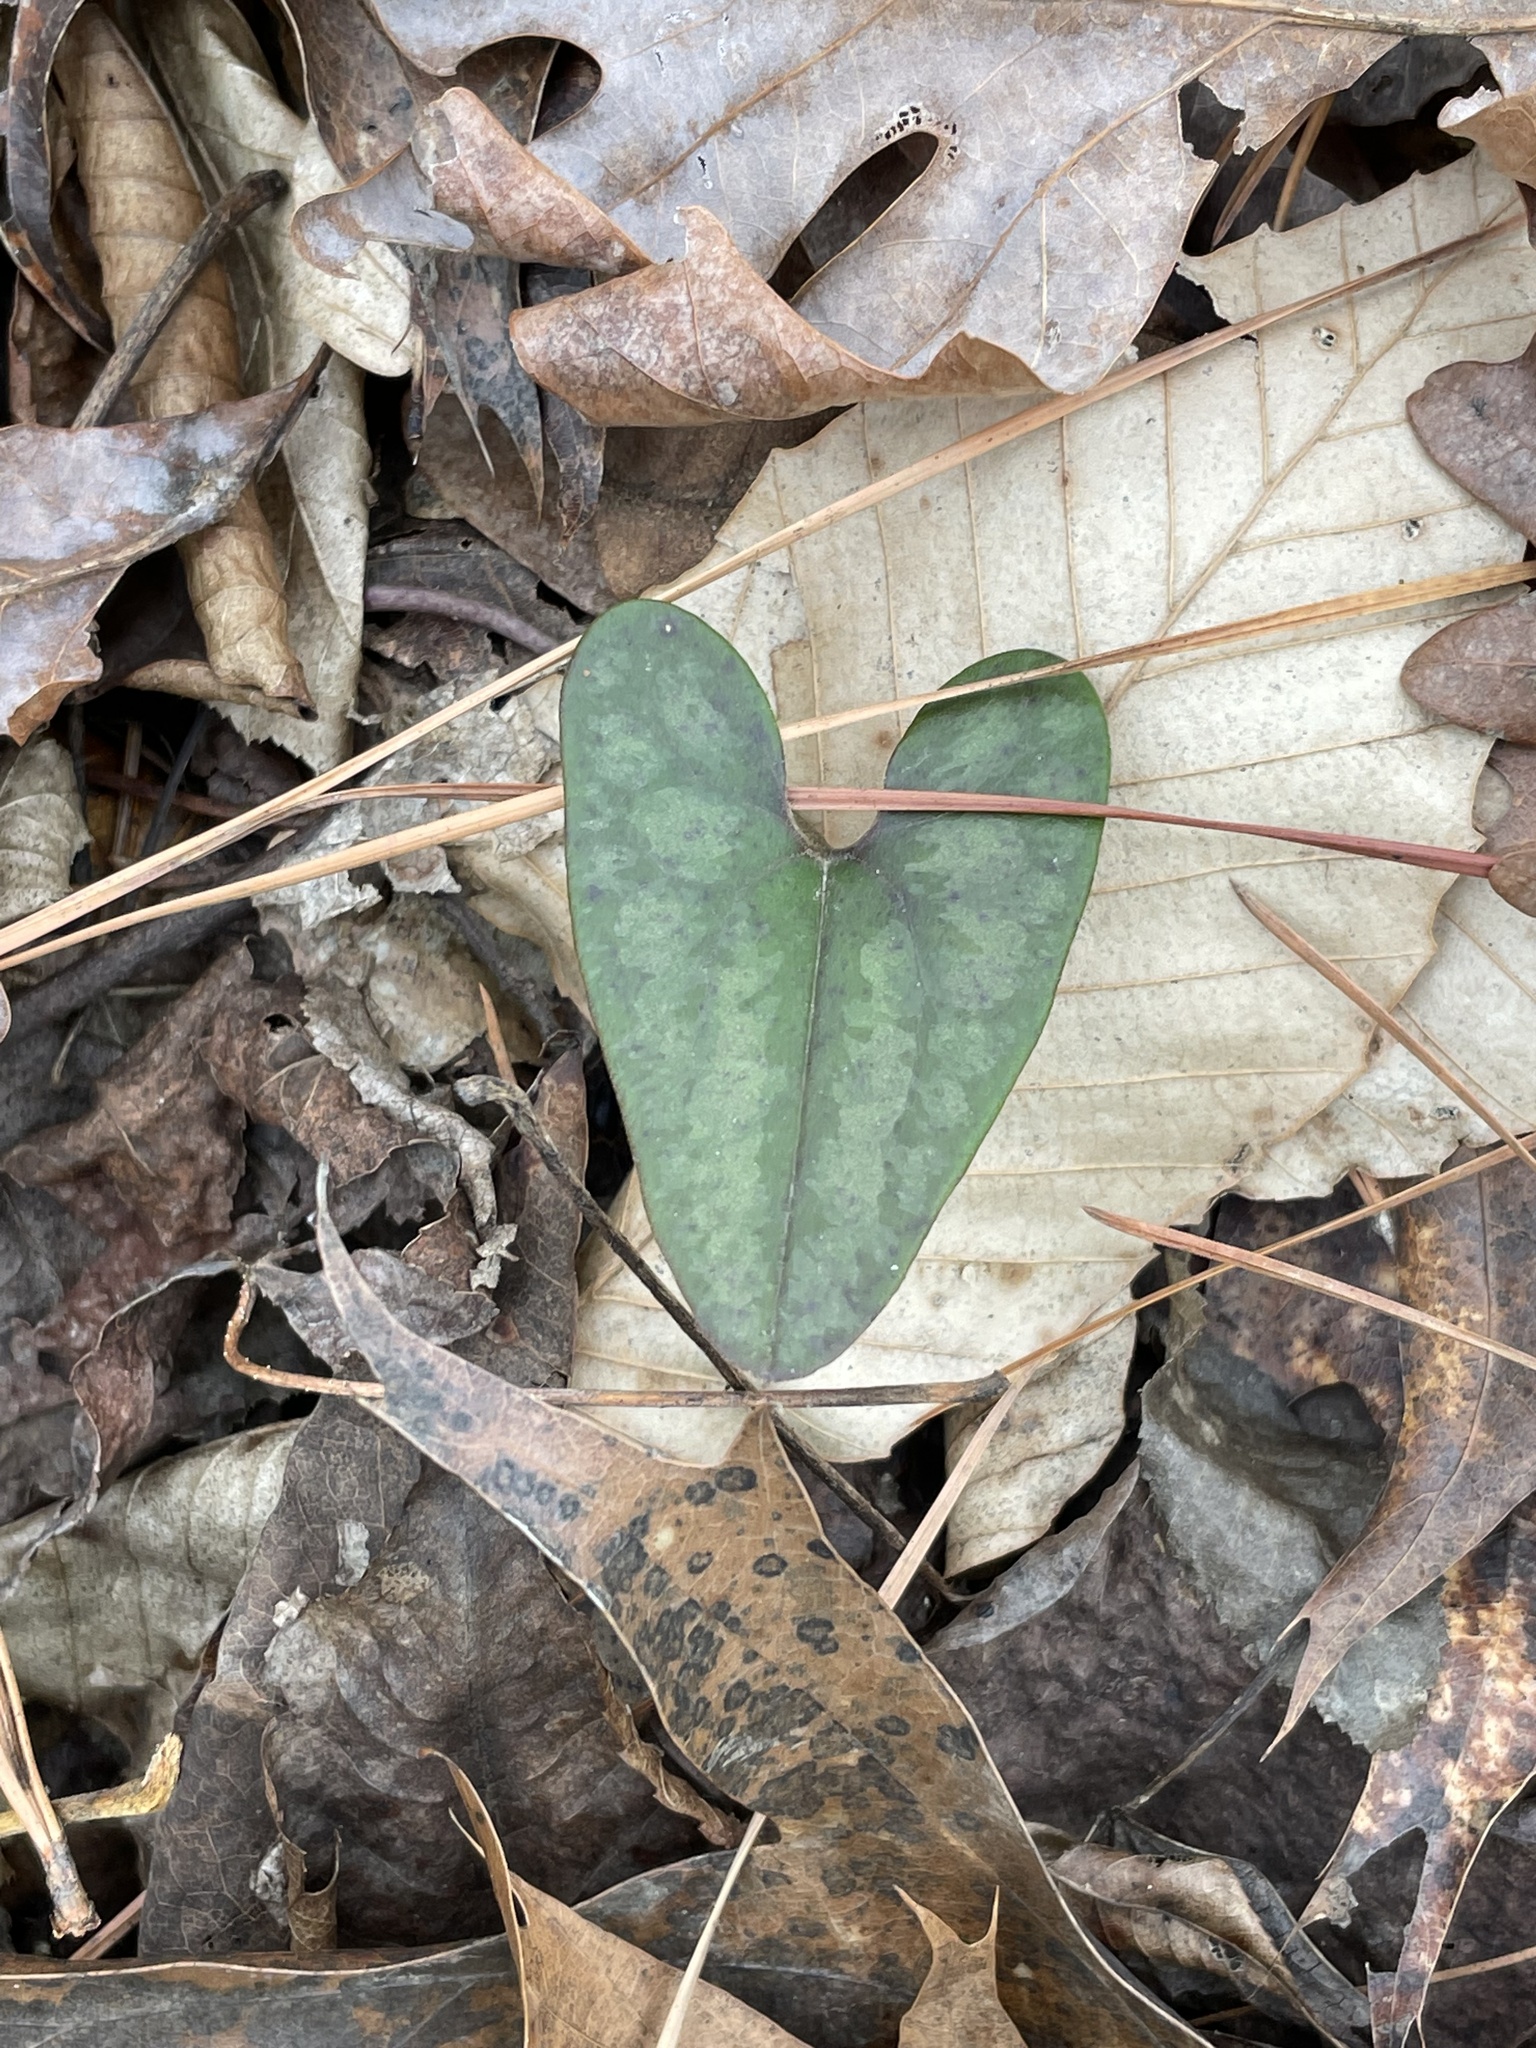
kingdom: Plantae
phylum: Tracheophyta
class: Magnoliopsida
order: Piperales
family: Aristolochiaceae
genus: Hexastylis
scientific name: Hexastylis arifolia
